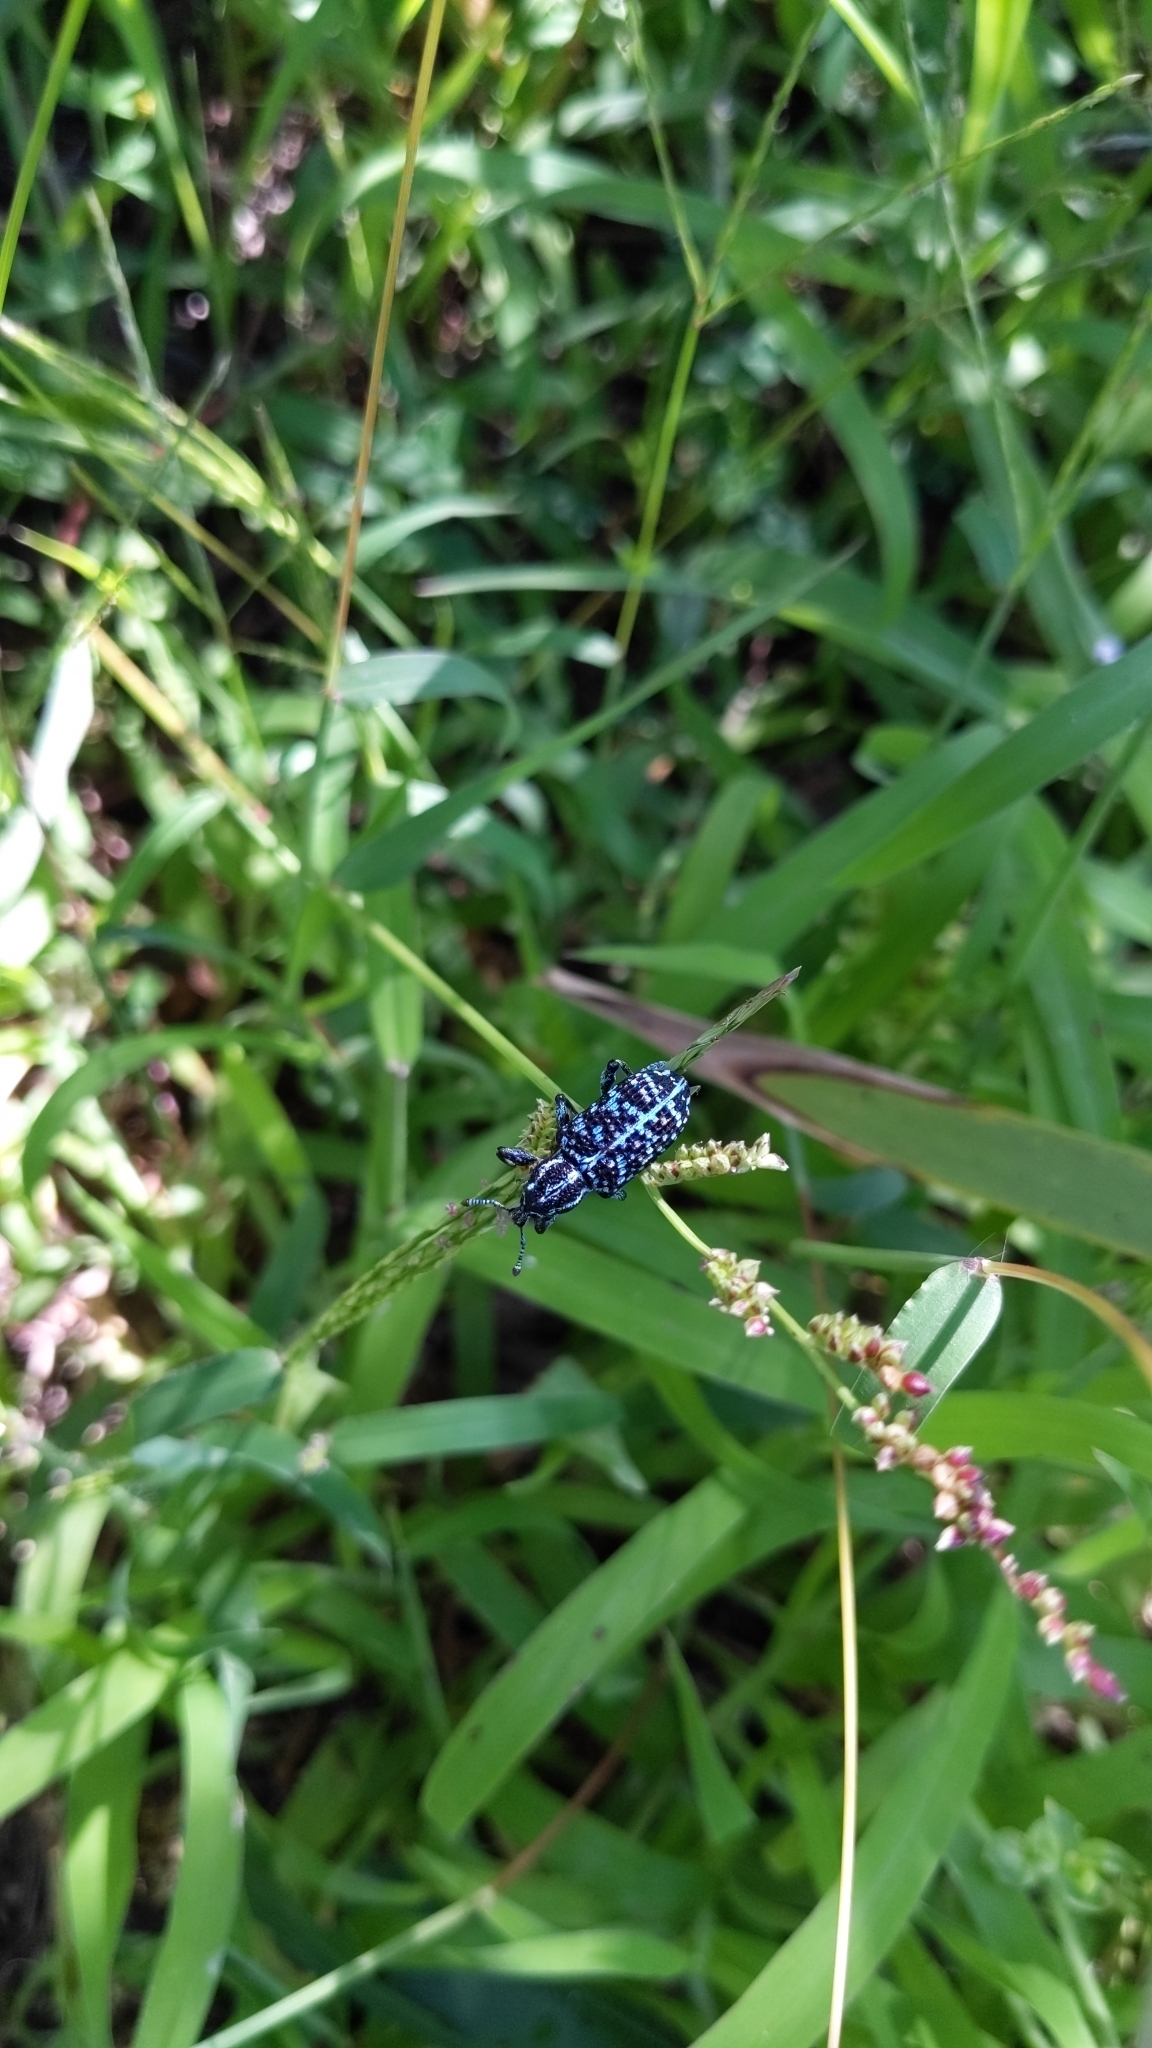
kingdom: Animalia
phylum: Arthropoda
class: Insecta
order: Coleoptera
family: Curculionidae
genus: Chrysolopus
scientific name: Chrysolopus spectabilis
